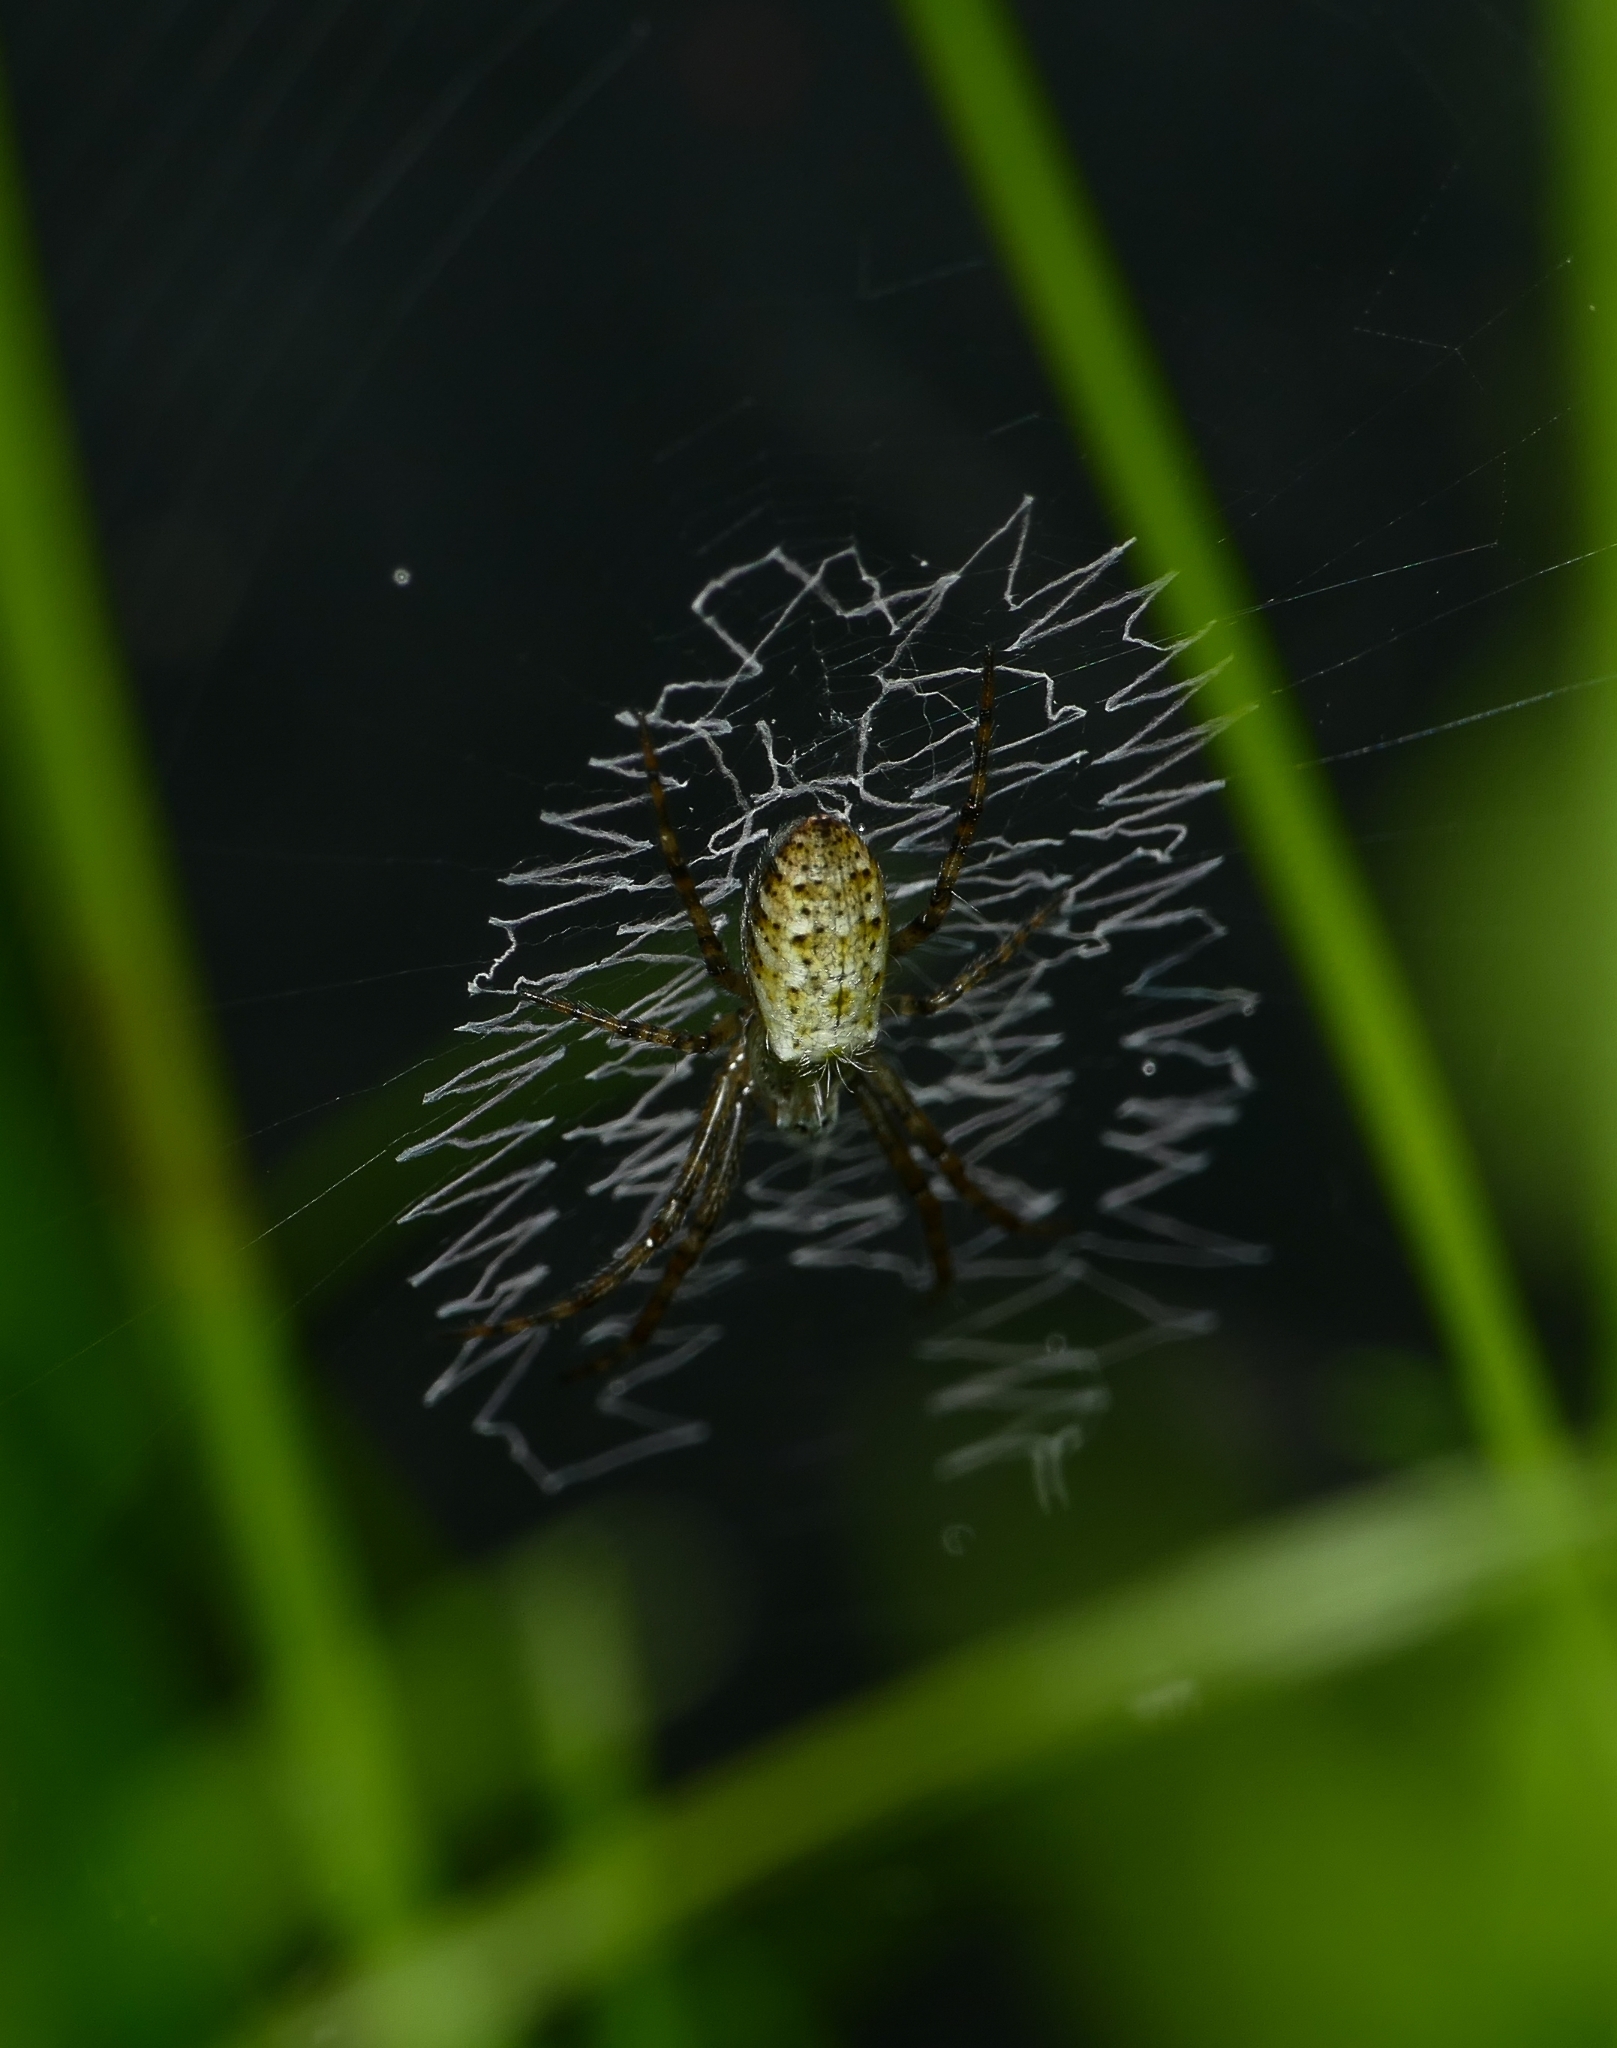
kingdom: Animalia
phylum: Arthropoda
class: Arachnida
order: Araneae
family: Araneidae
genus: Argiope
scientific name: Argiope bruennichi
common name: Wasp spider
